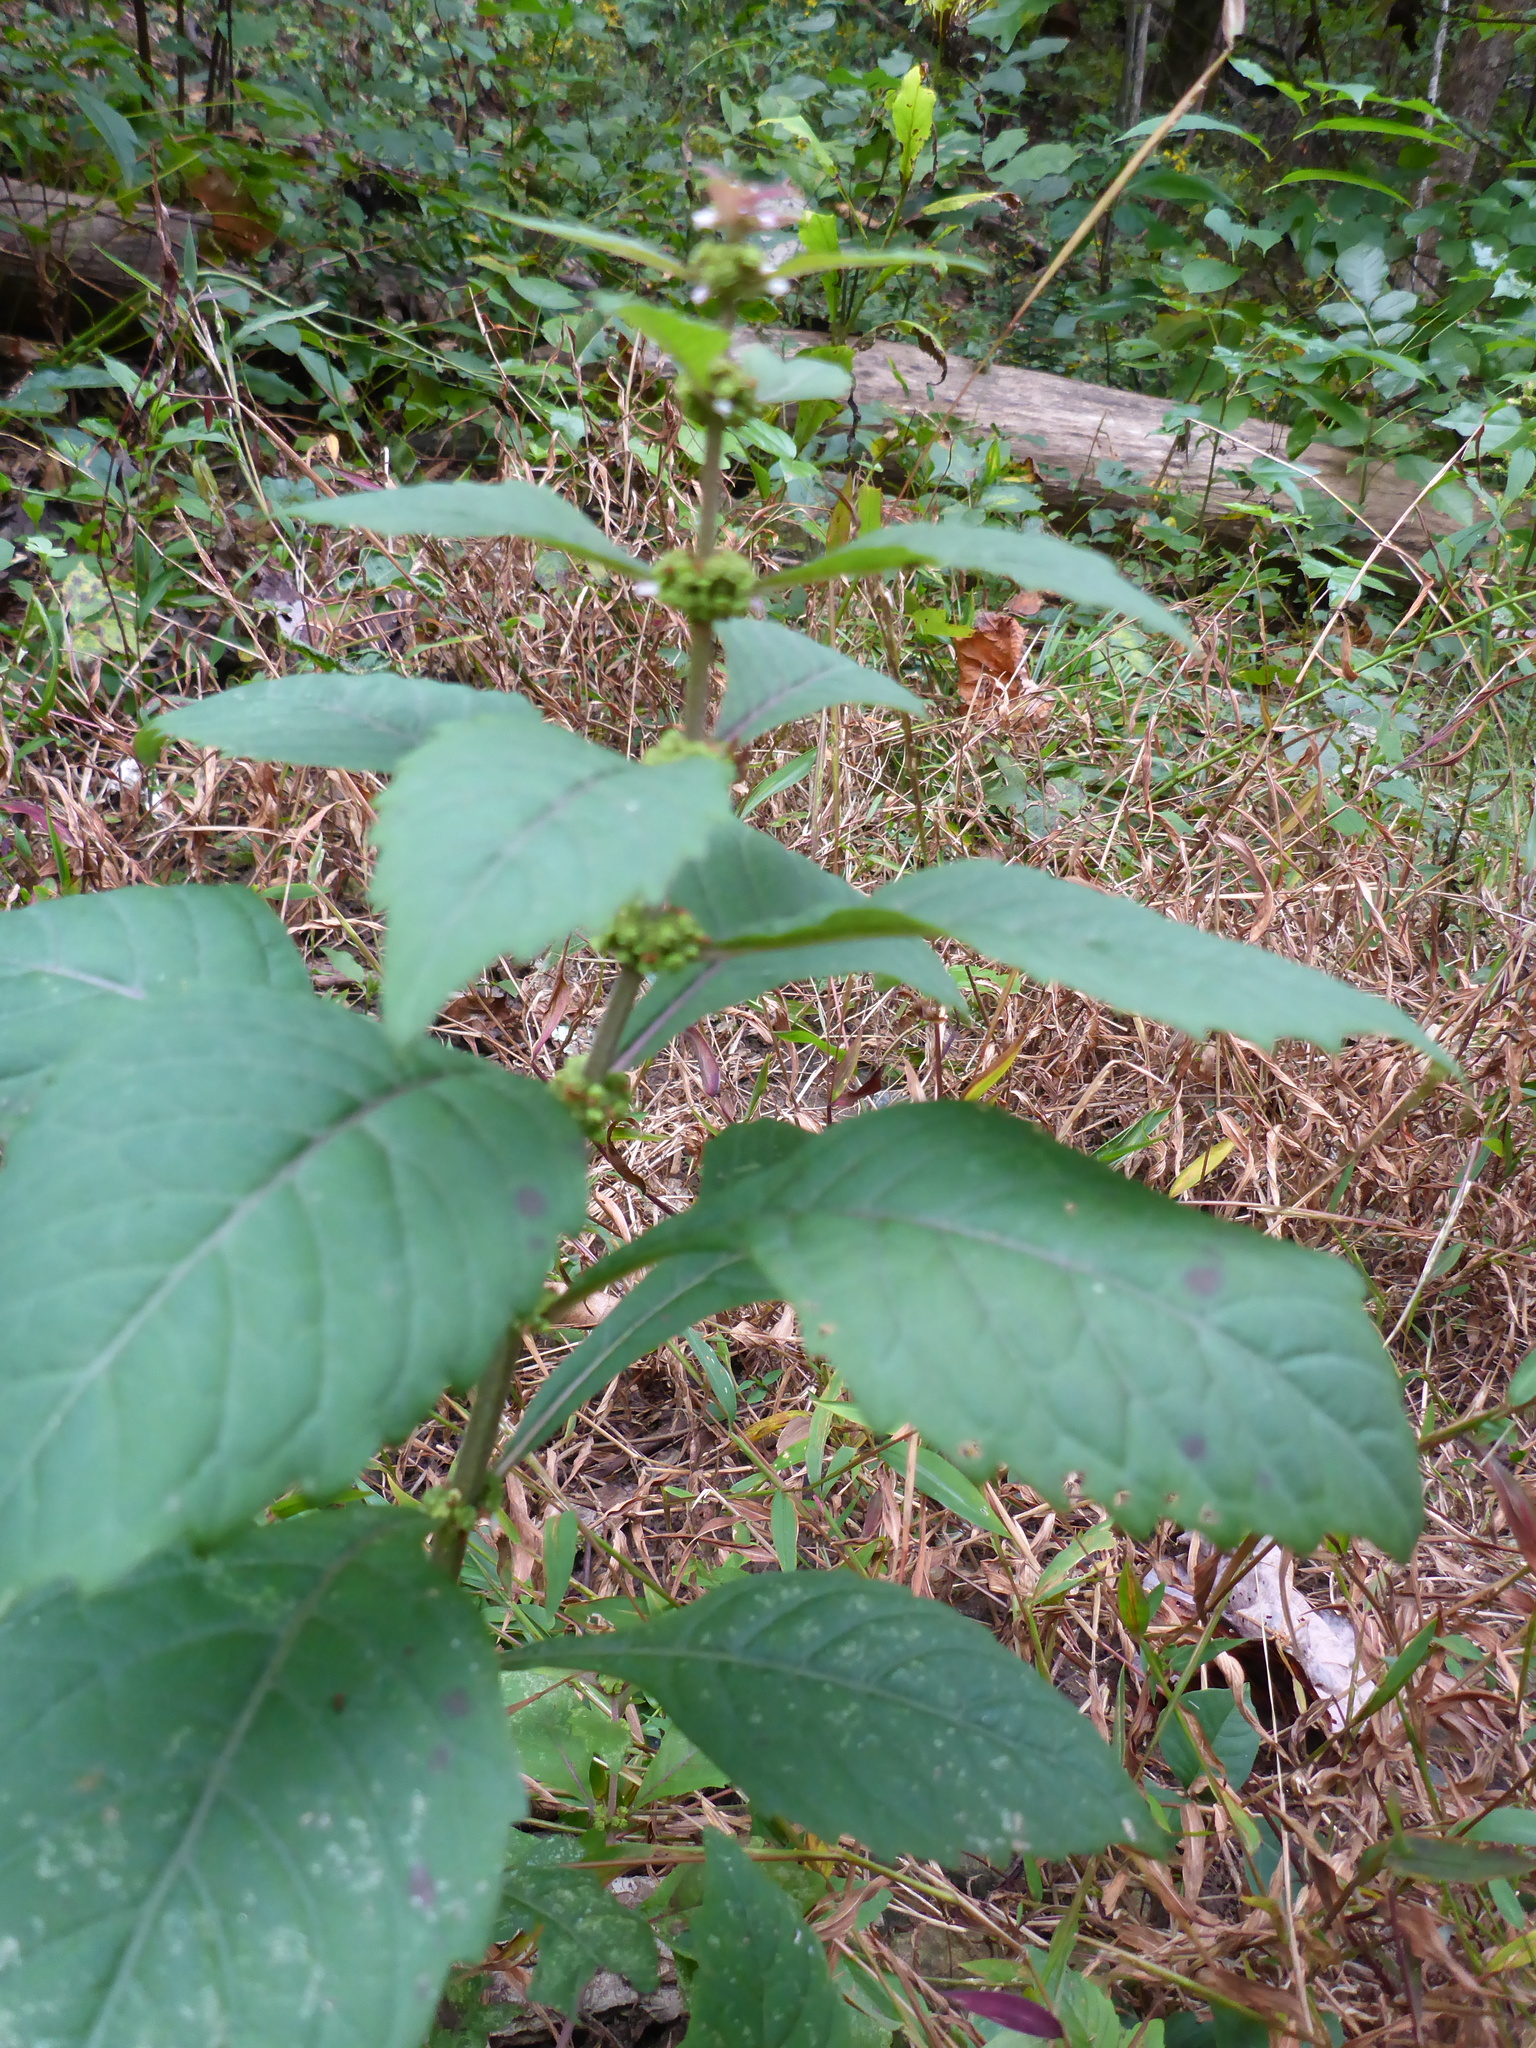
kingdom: Plantae
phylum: Tracheophyta
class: Magnoliopsida
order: Asterales
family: Asteraceae
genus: Ageratina
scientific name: Ageratina altissima
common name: White snakeroot
